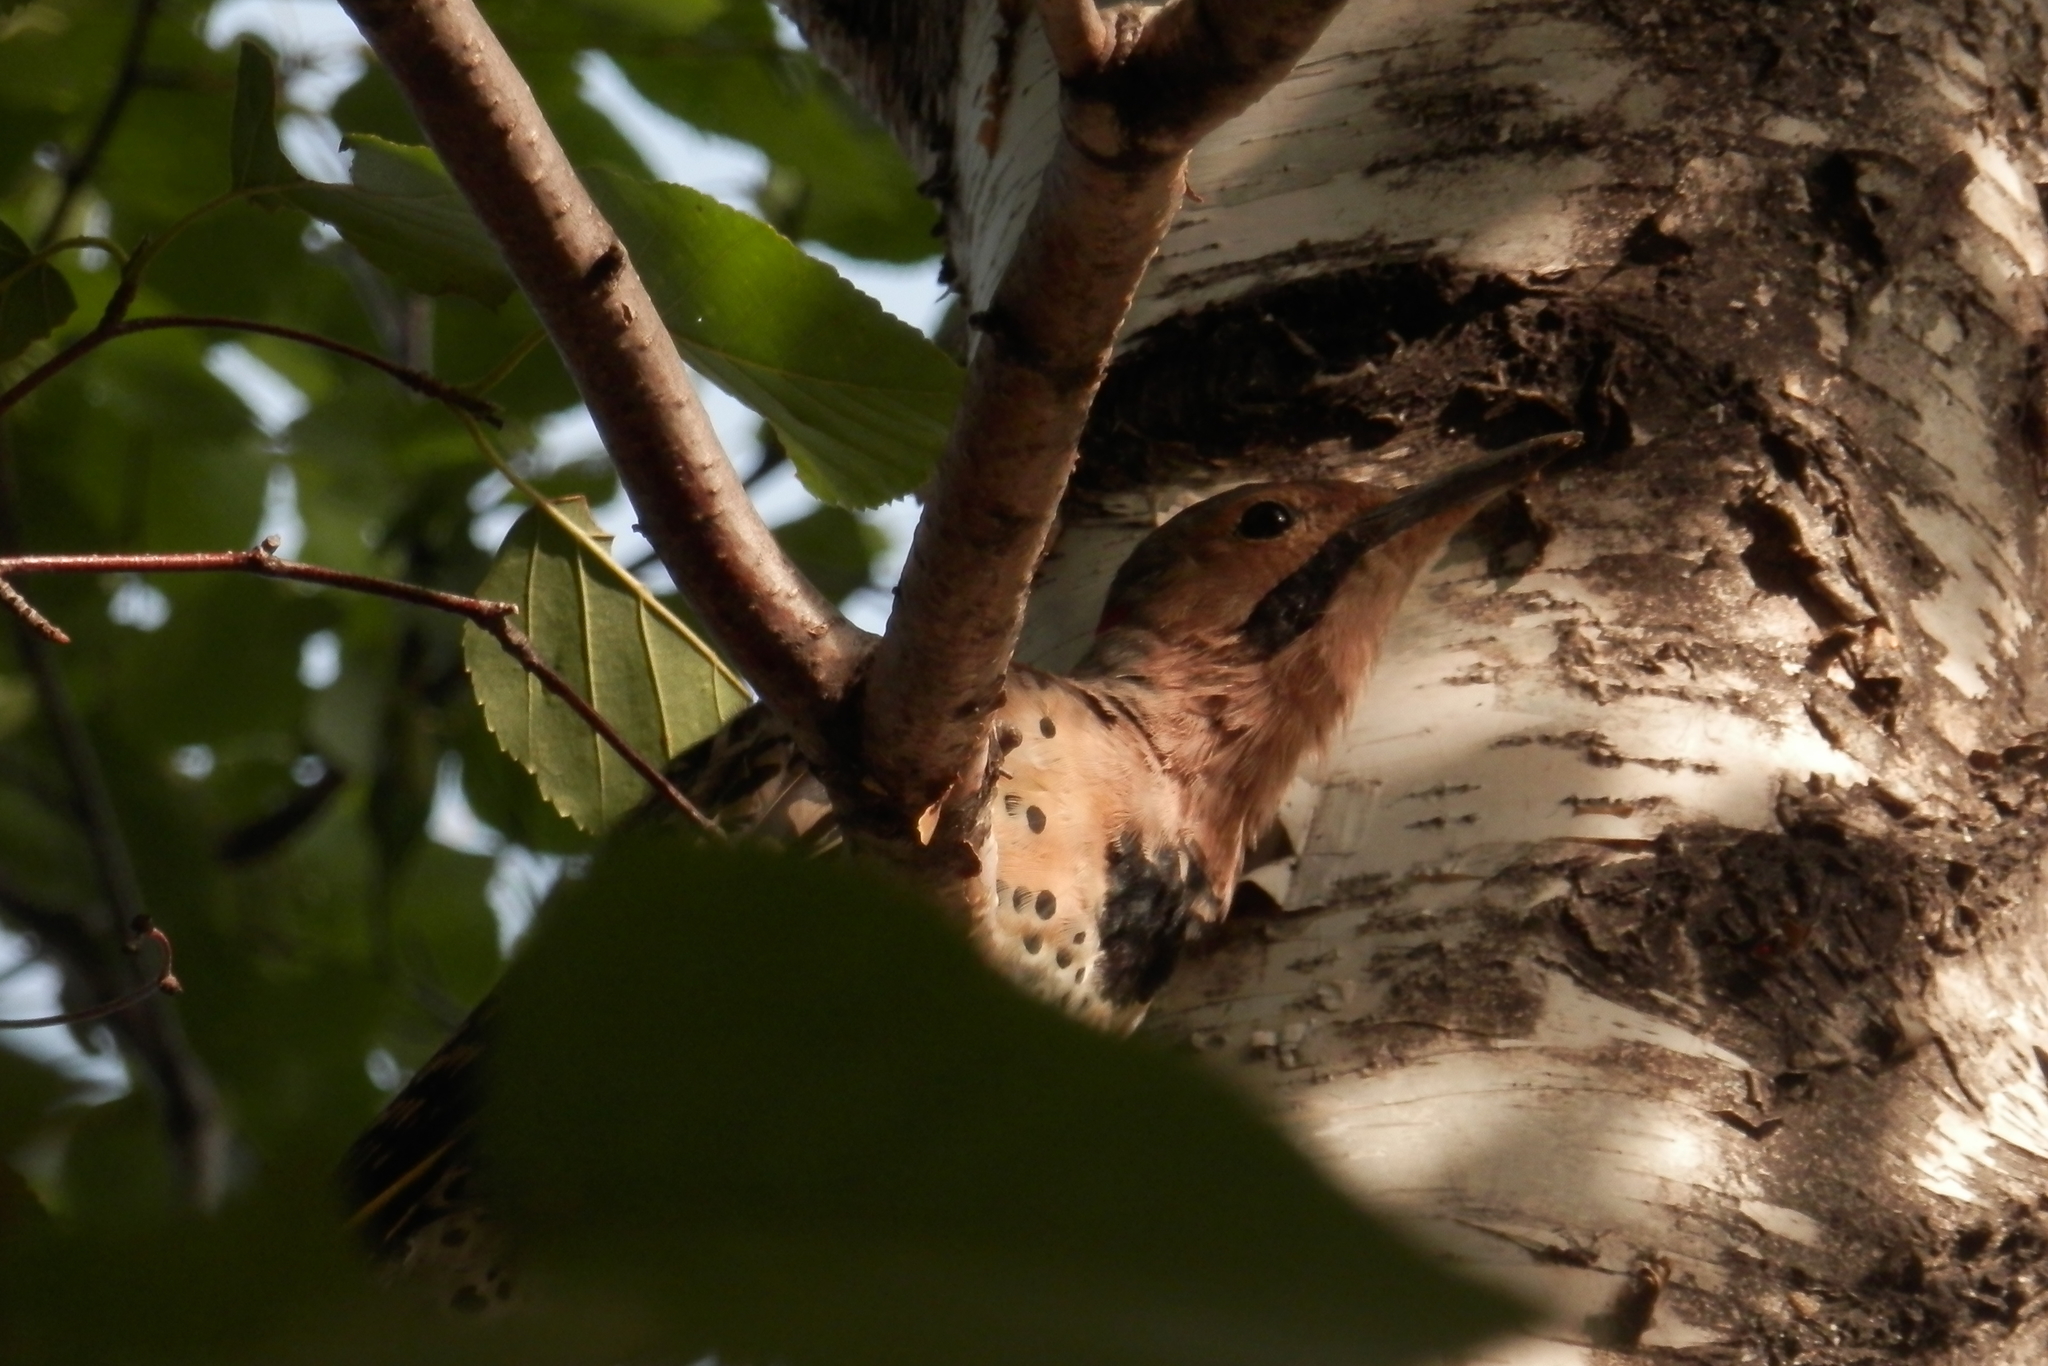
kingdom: Animalia
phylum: Chordata
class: Aves
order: Piciformes
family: Picidae
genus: Colaptes
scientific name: Colaptes auratus
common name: Northern flicker
